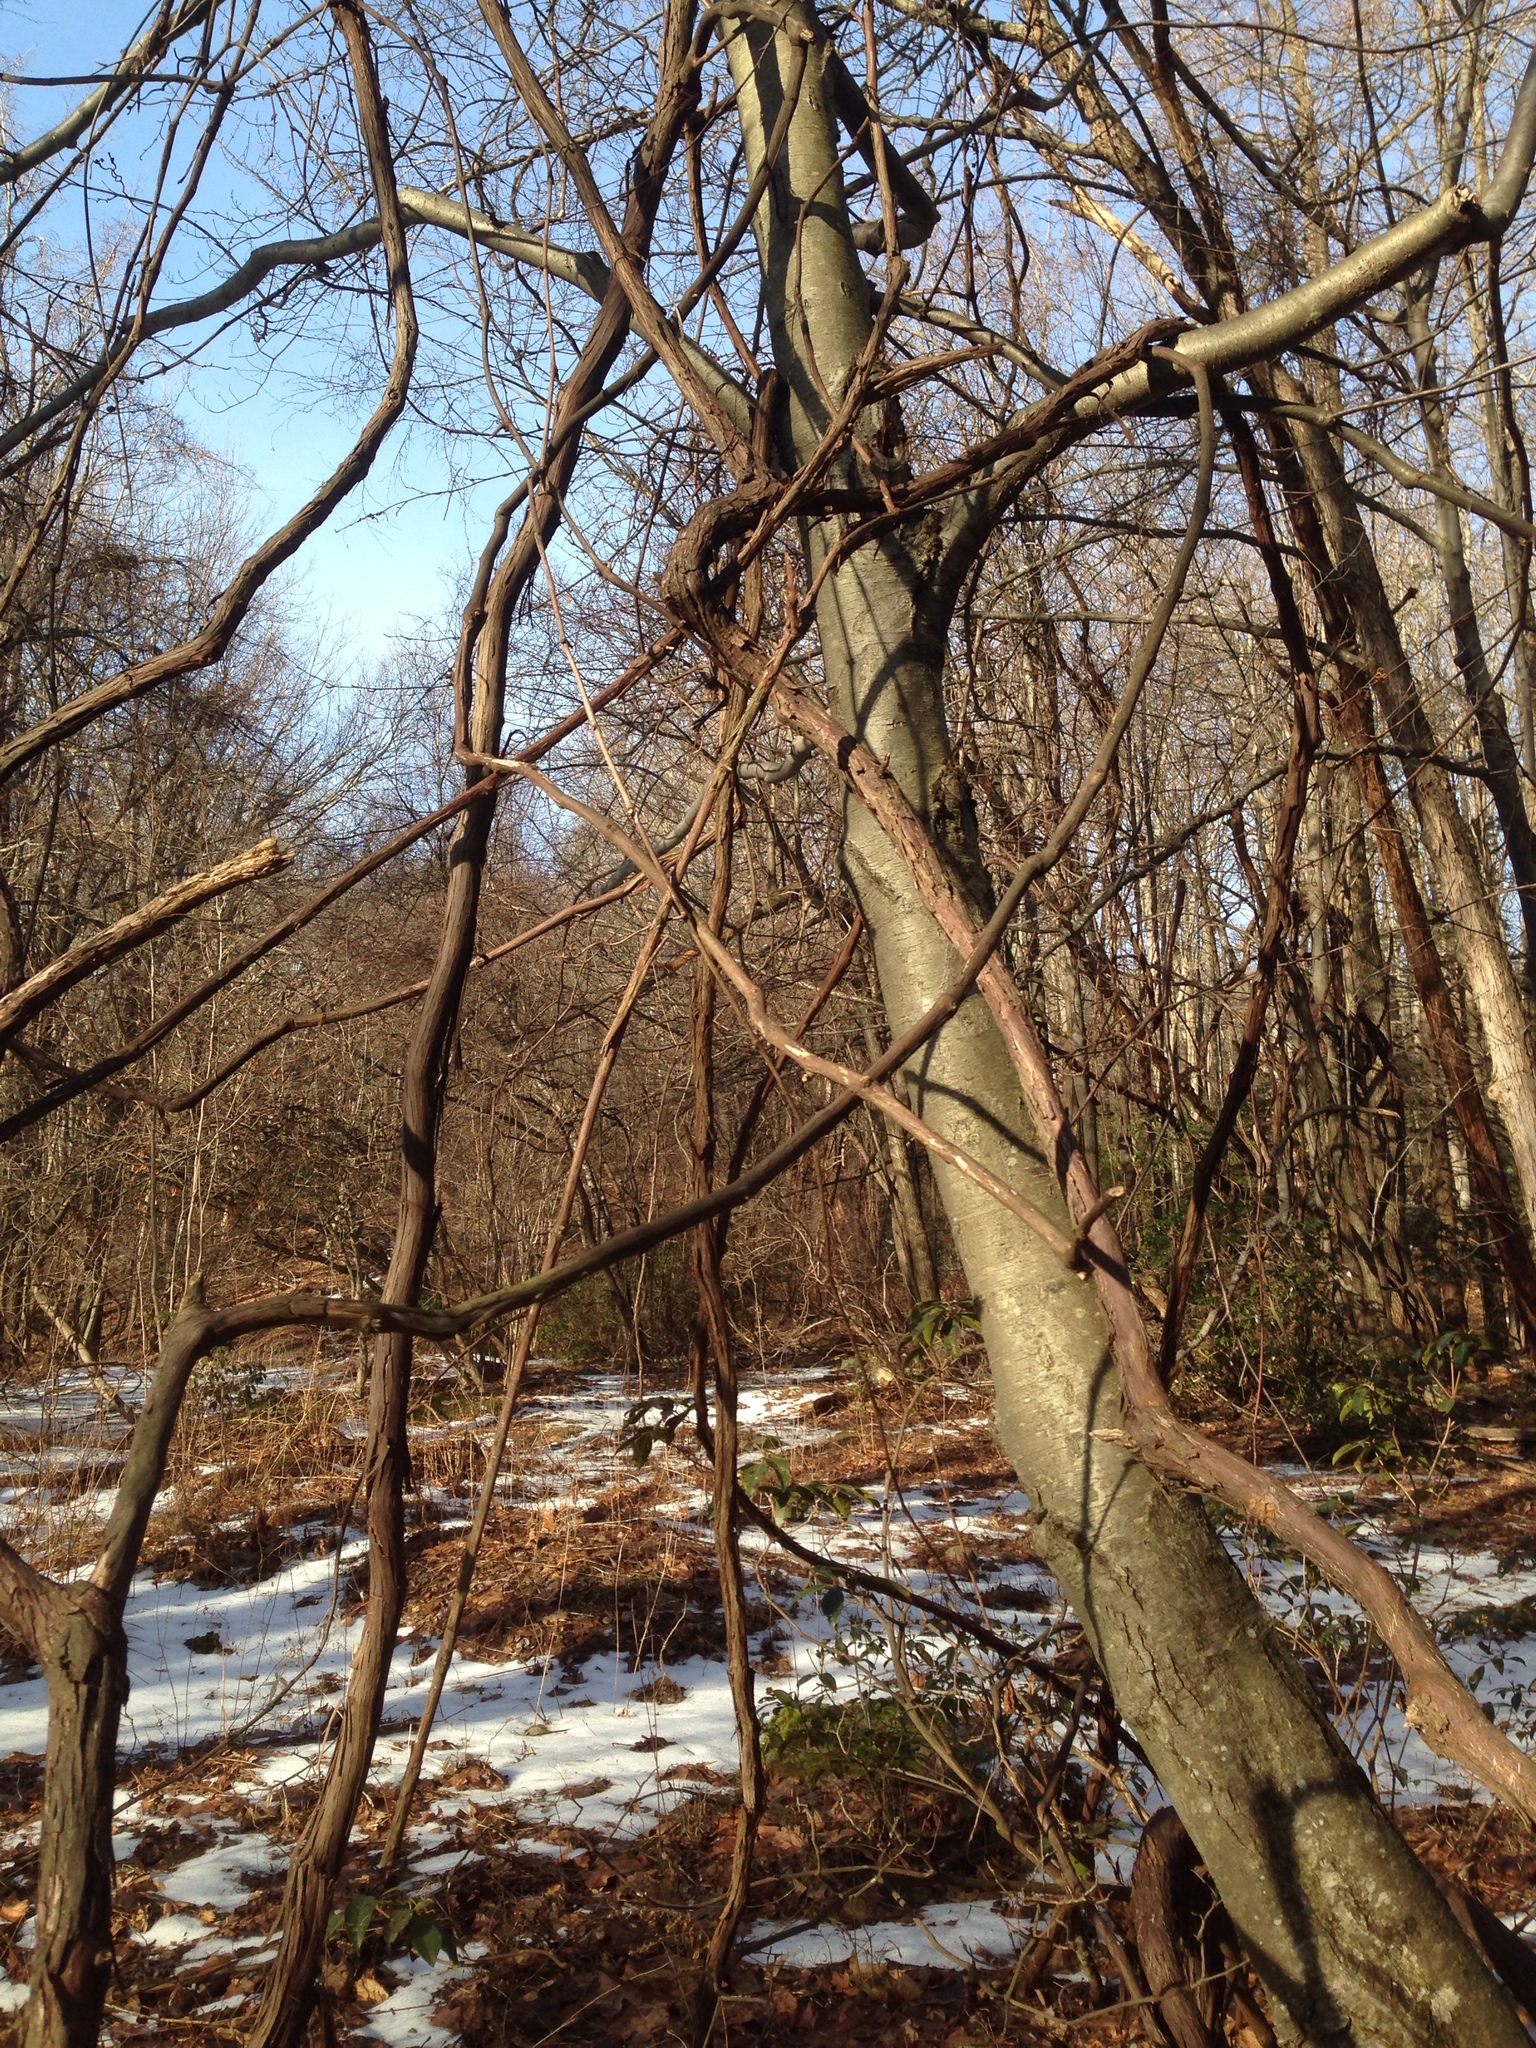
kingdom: Plantae
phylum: Tracheophyta
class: Magnoliopsida
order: Vitales
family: Vitaceae
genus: Vitis
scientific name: Vitis
